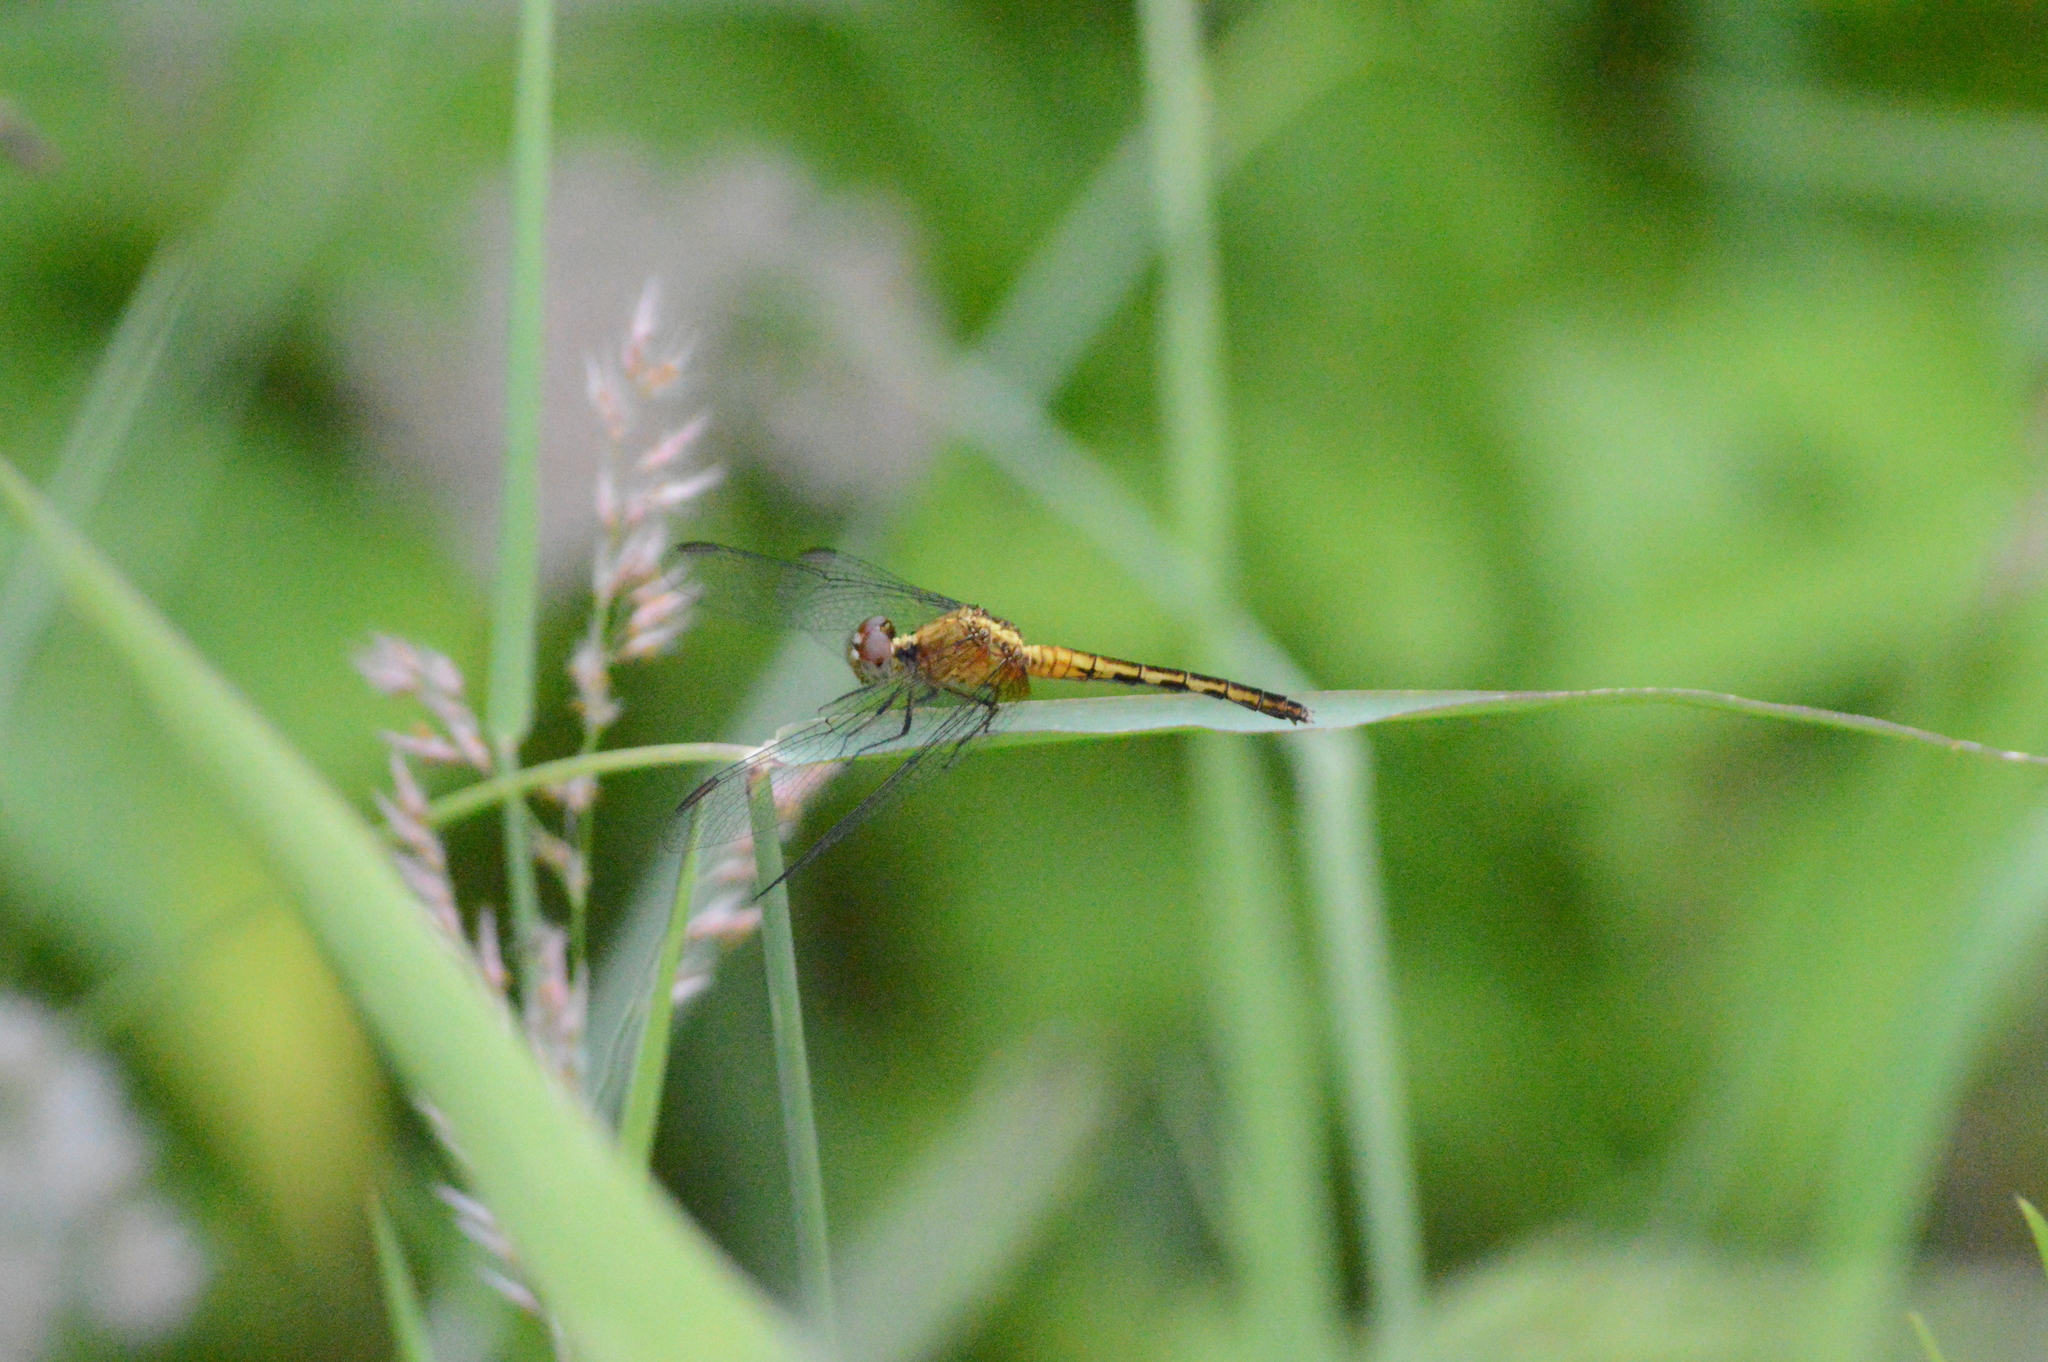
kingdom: Animalia
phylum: Arthropoda
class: Insecta
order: Odonata
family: Libellulidae
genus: Erythrodiplax
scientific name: Erythrodiplax umbrata
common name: Band-winged dragonlet
